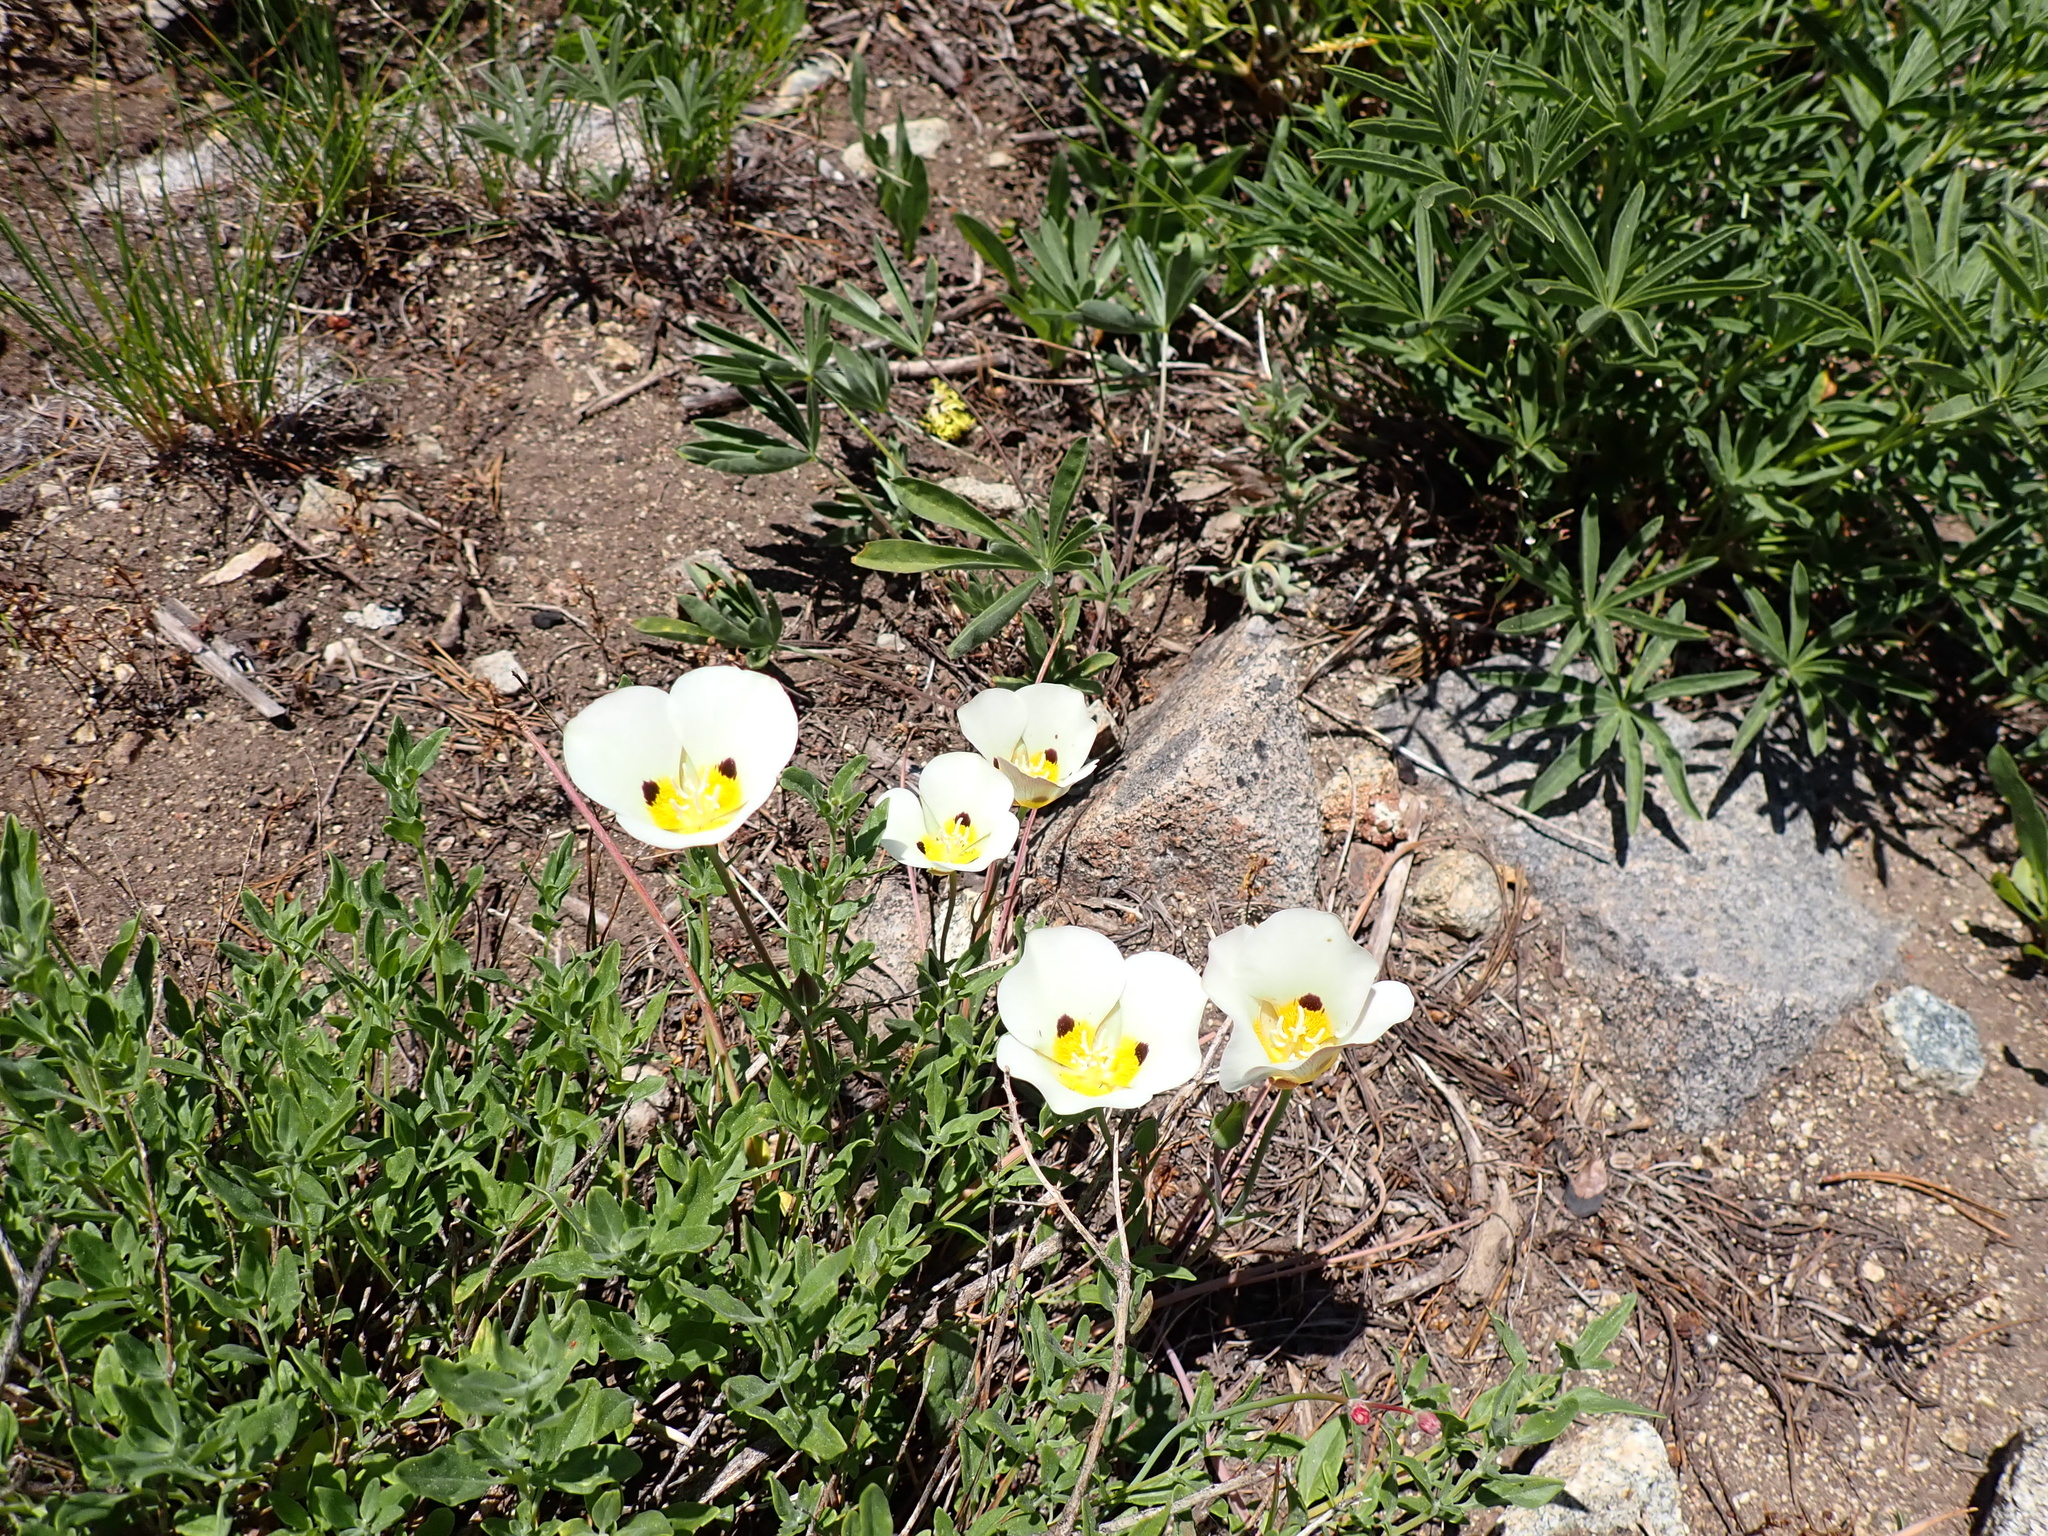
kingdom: Plantae
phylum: Tracheophyta
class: Liliopsida
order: Liliales
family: Liliaceae
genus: Calochortus
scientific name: Calochortus leichtlinii
